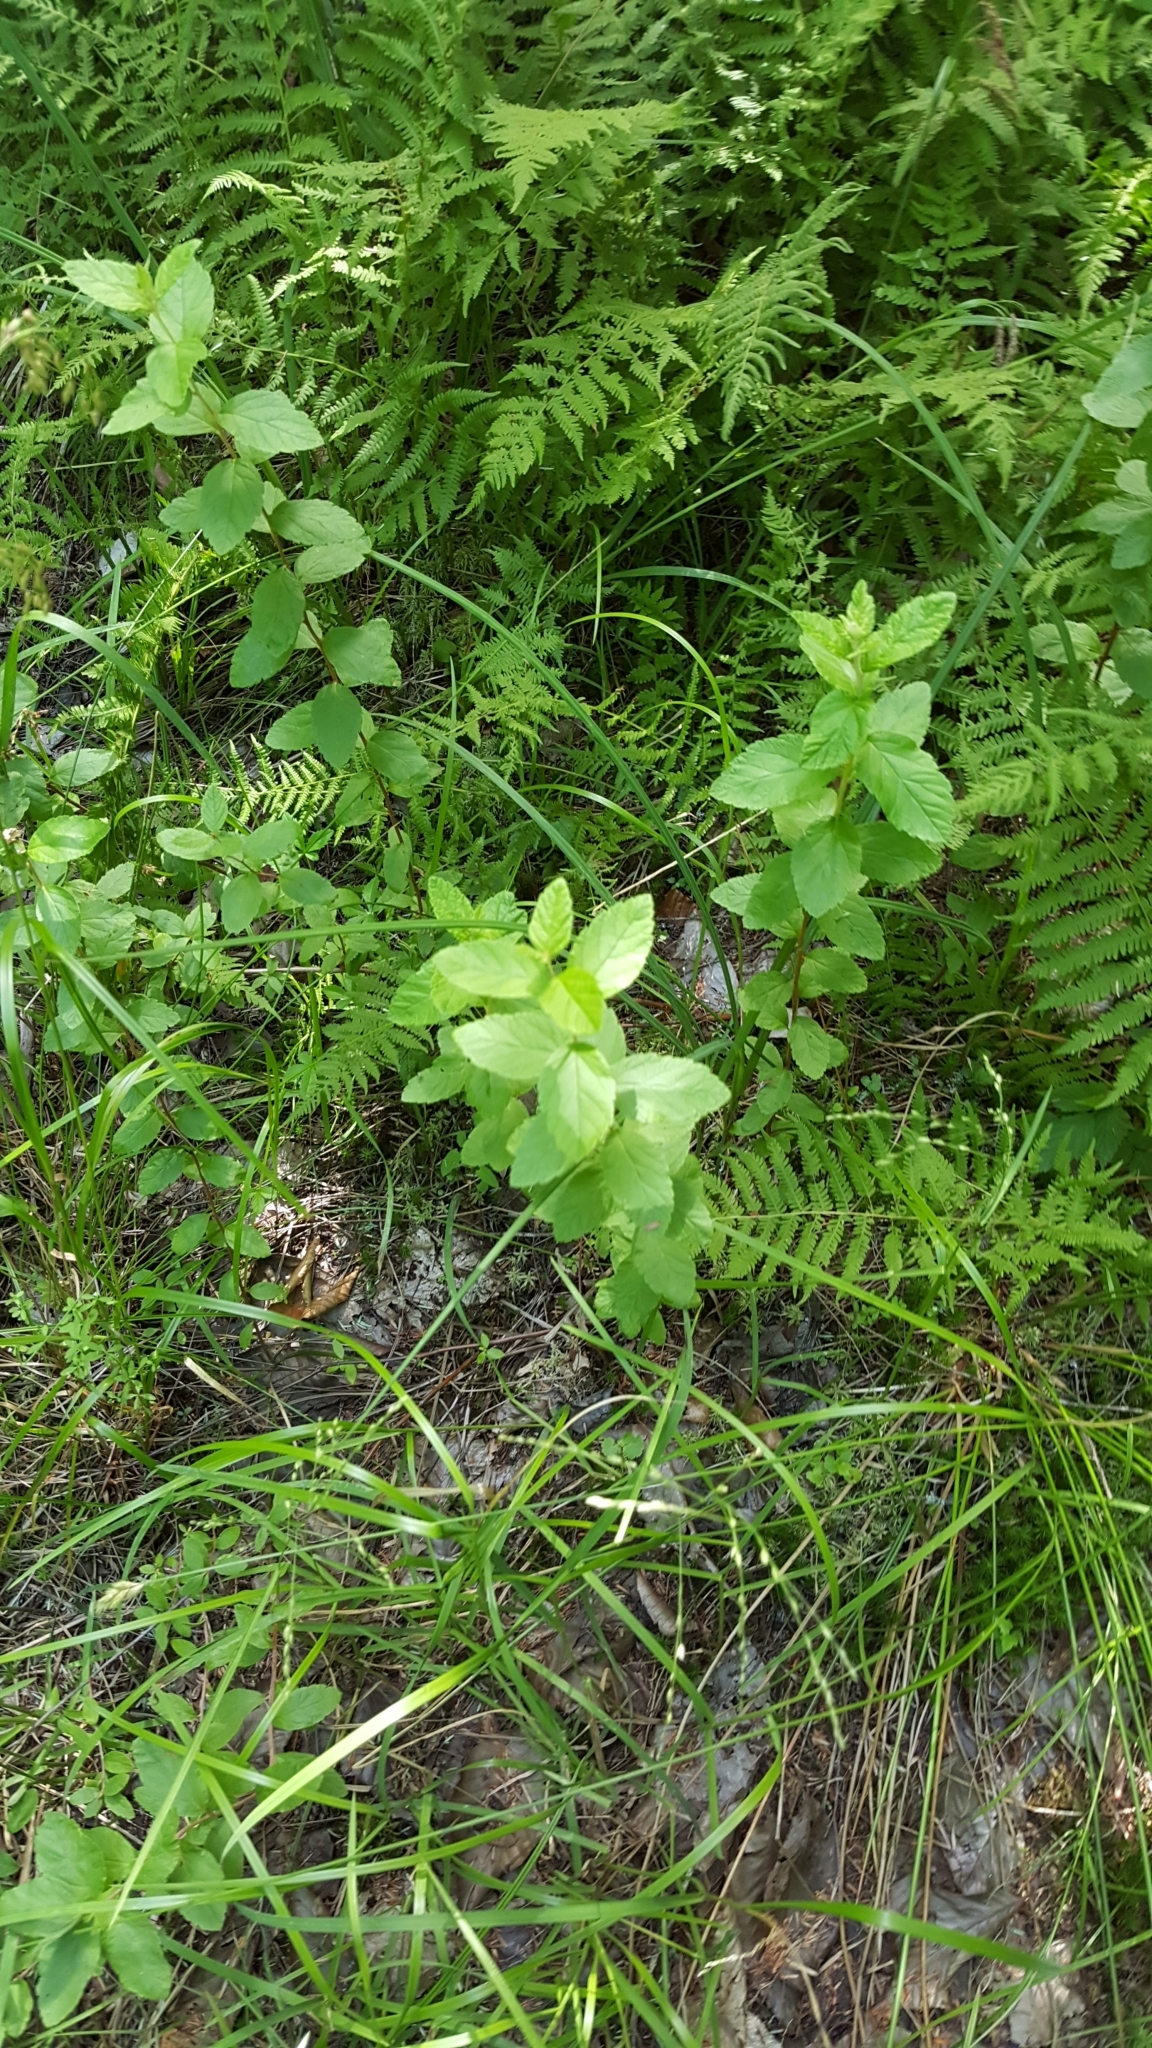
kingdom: Plantae
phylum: Tracheophyta
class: Magnoliopsida
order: Rosales
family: Rosaceae
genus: Spiraea
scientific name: Spiraea alba
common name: Pale bridewort
